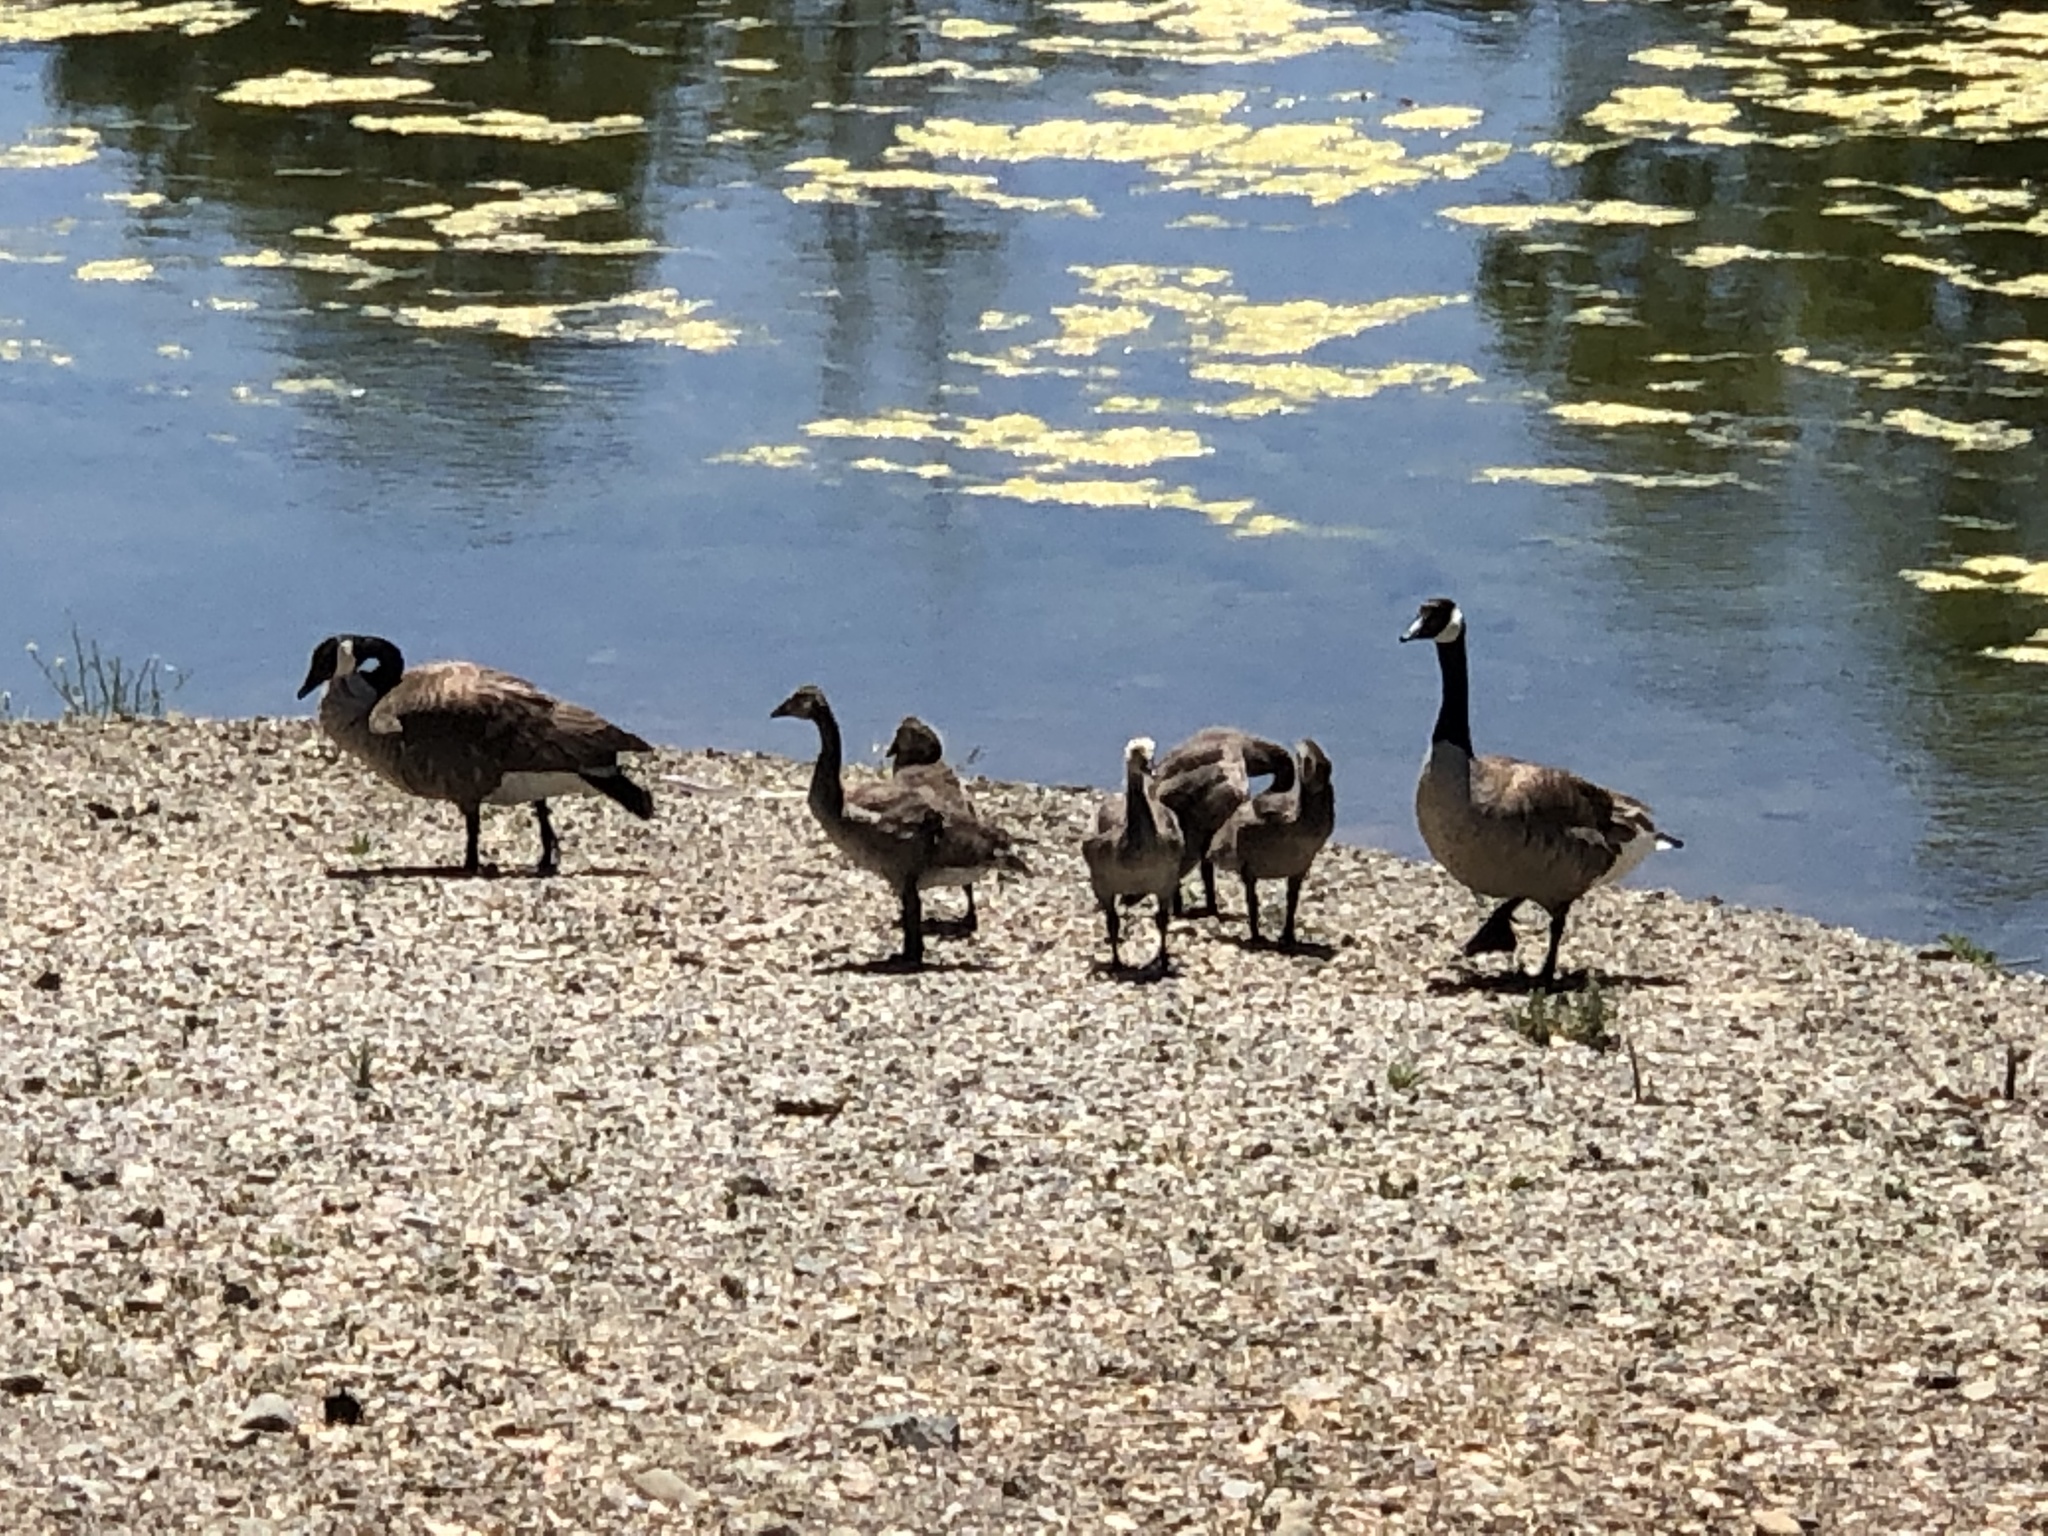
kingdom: Animalia
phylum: Chordata
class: Aves
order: Anseriformes
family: Anatidae
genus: Branta
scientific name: Branta canadensis
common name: Canada goose
